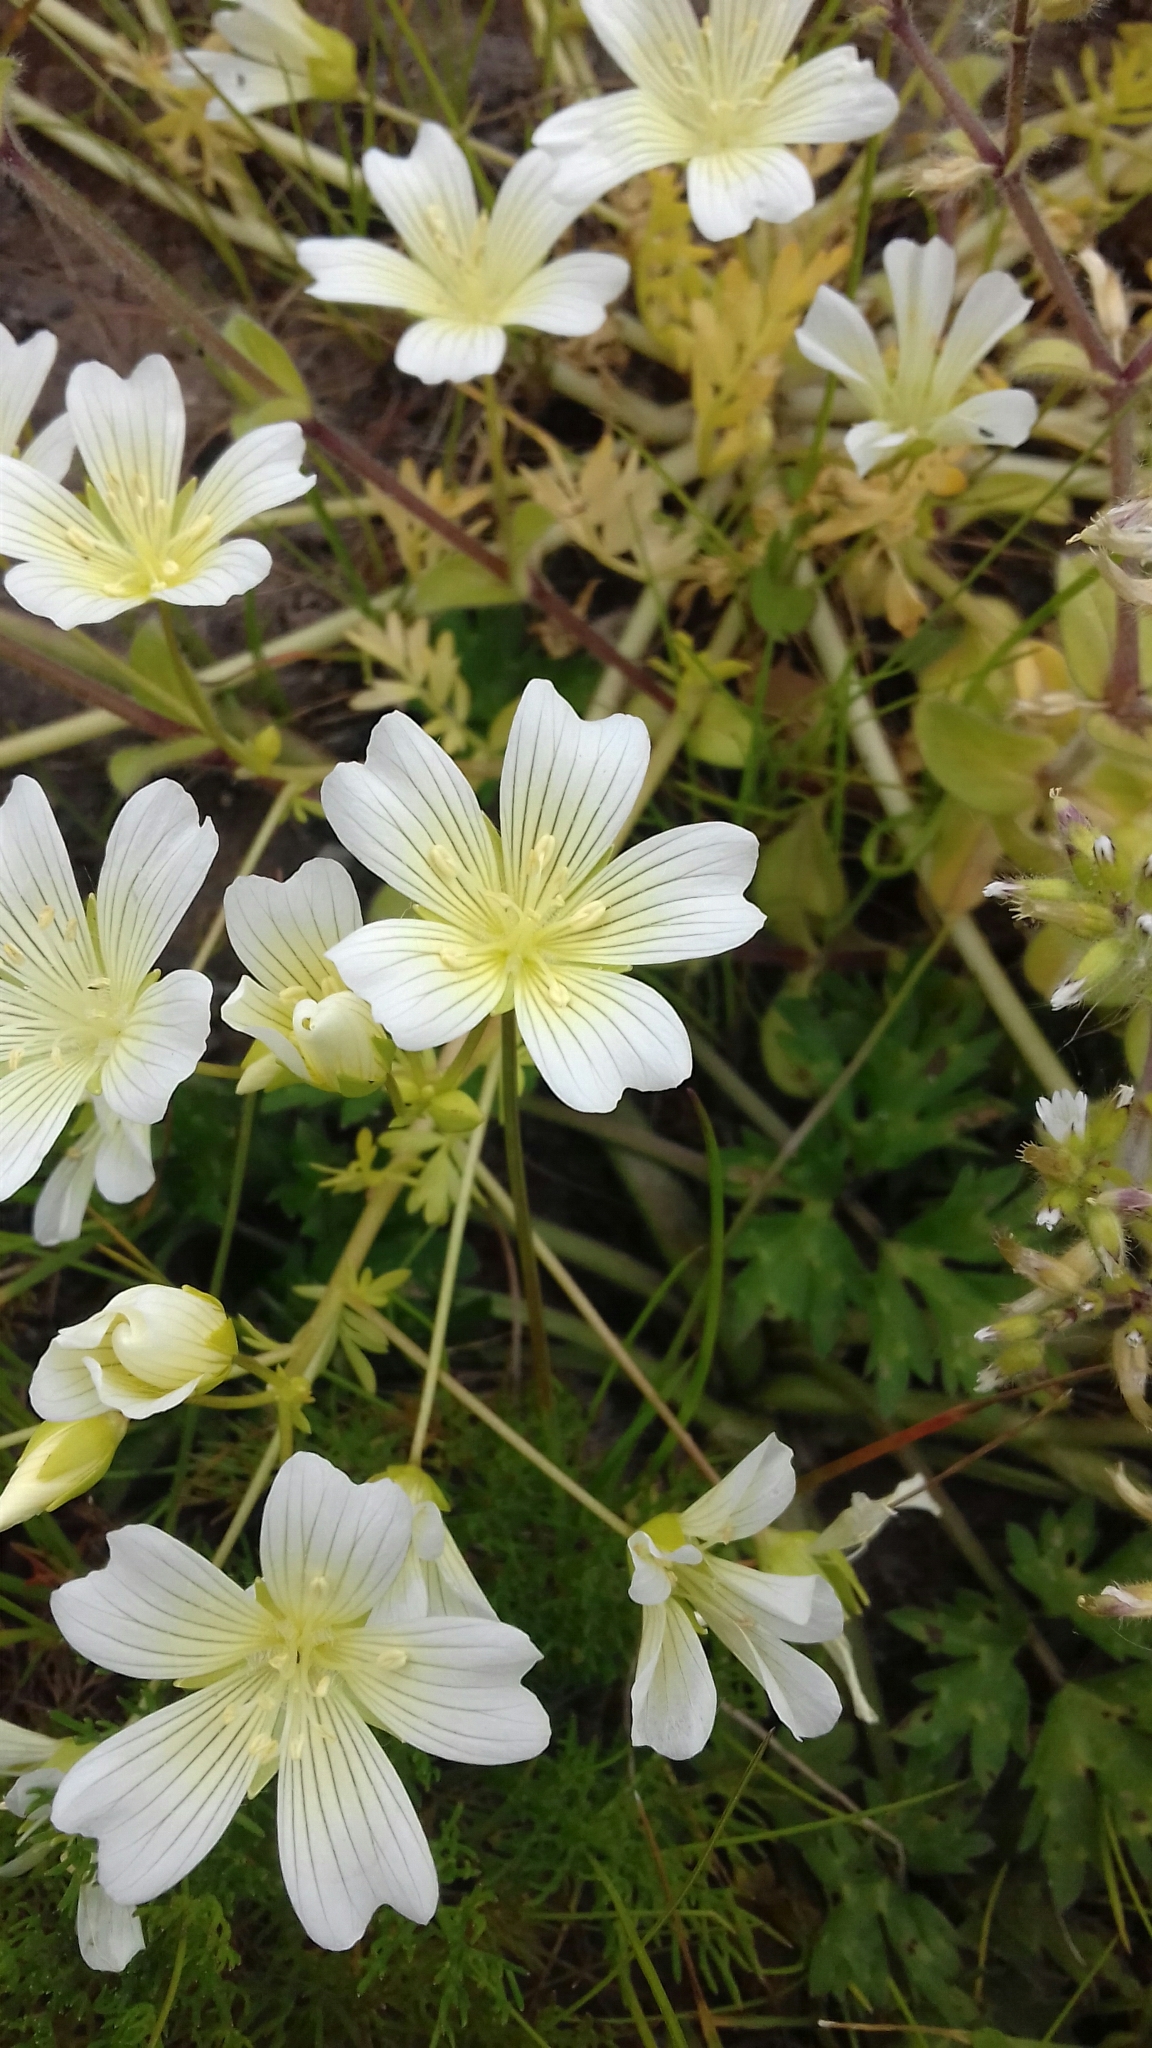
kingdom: Plantae
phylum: Tracheophyta
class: Magnoliopsida
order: Brassicales
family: Limnanthaceae
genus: Limnanthes
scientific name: Limnanthes douglasii
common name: Meadow-foam
